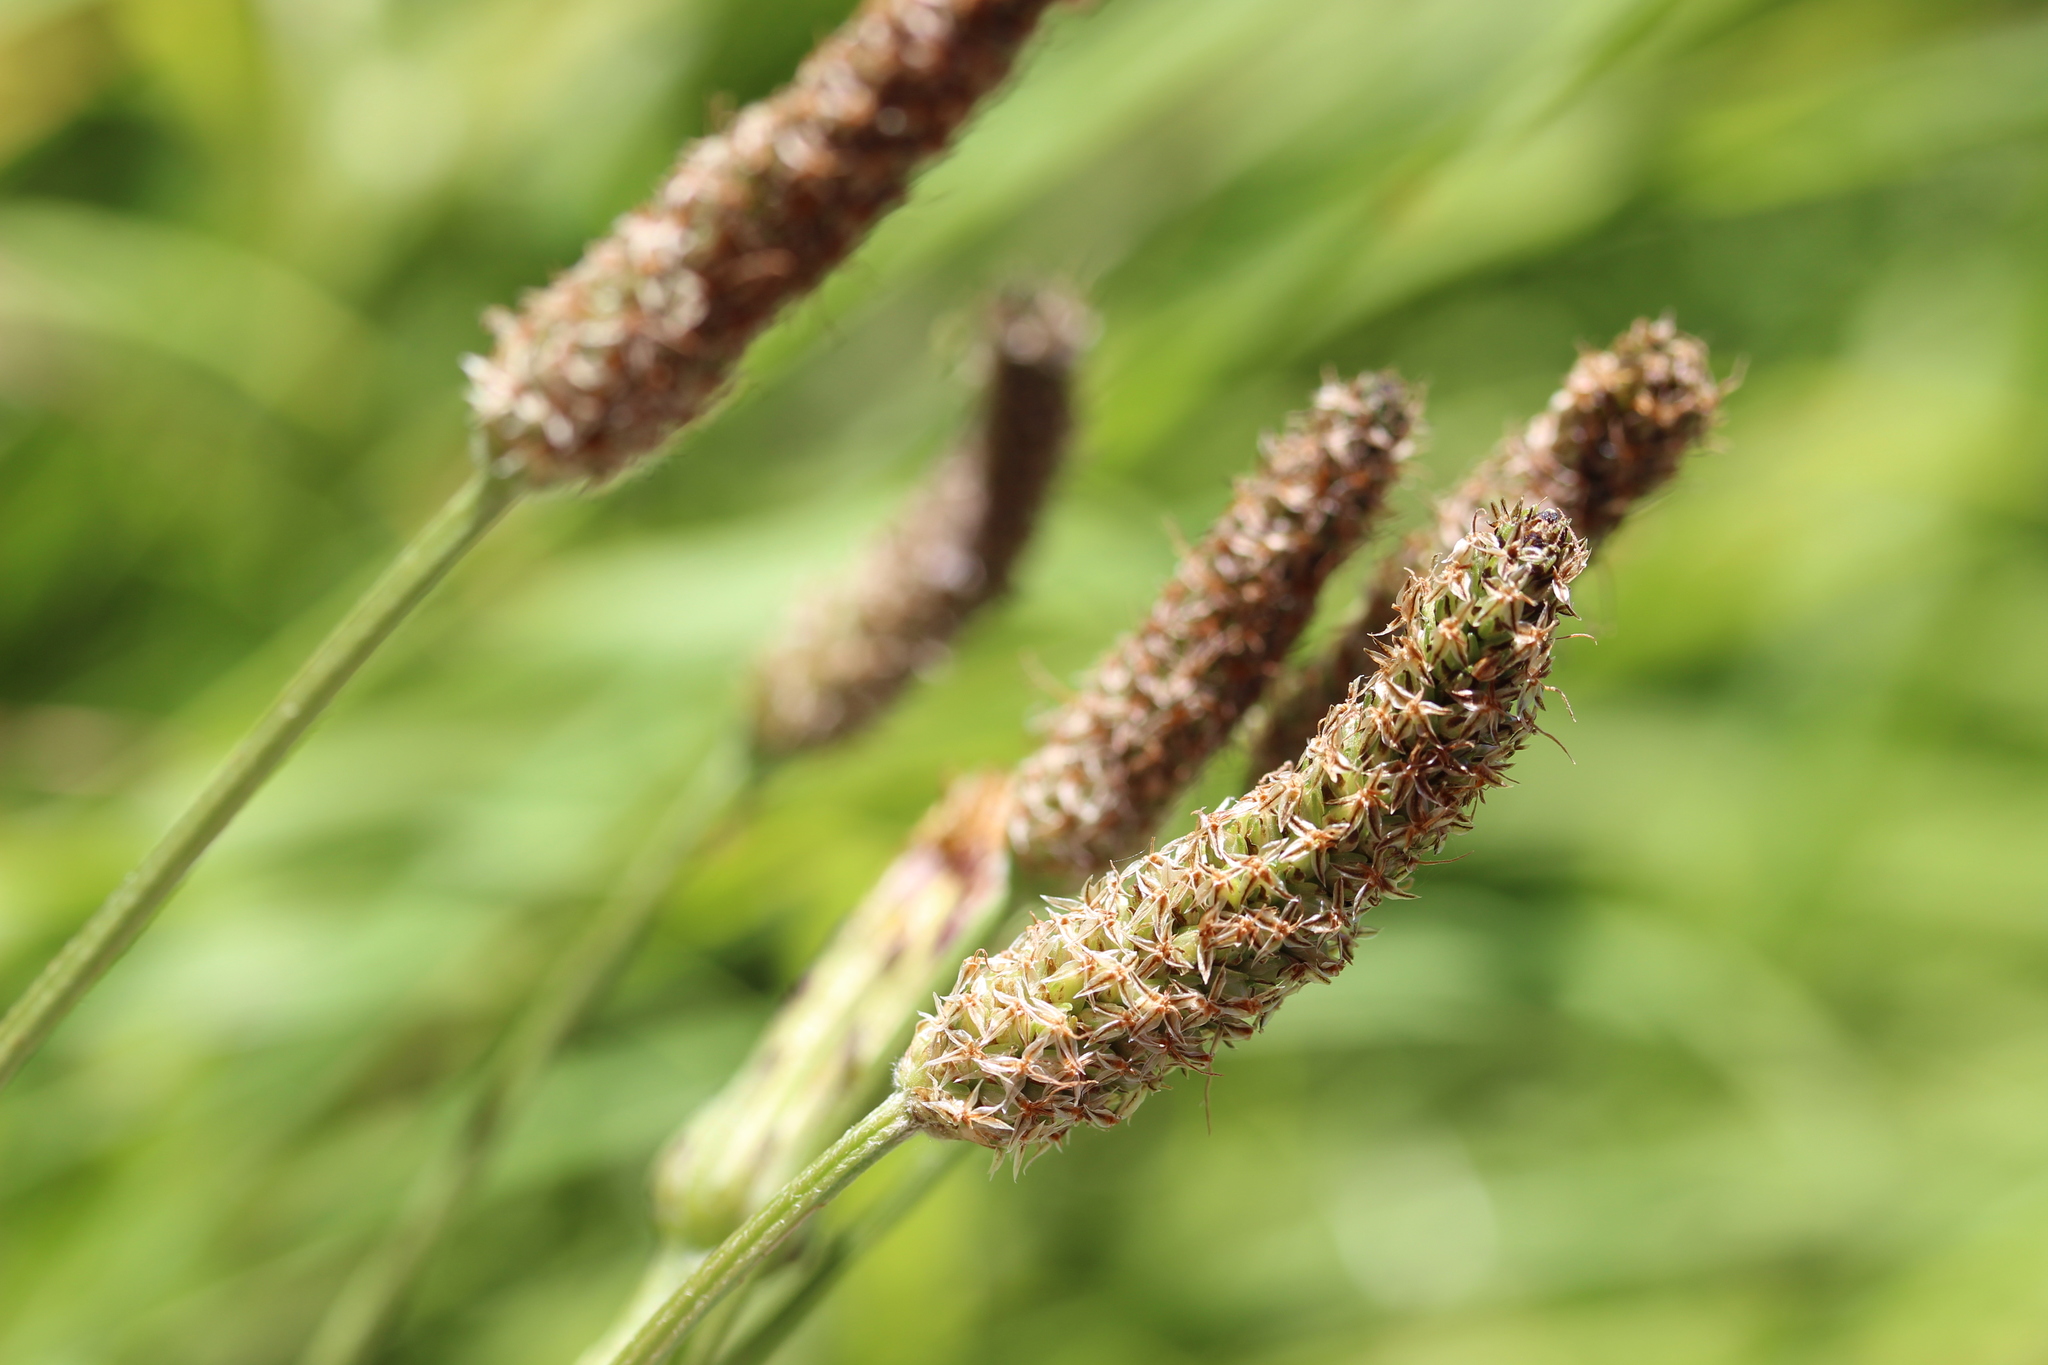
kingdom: Plantae
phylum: Tracheophyta
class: Magnoliopsida
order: Lamiales
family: Plantaginaceae
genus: Plantago
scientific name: Plantago lanceolata
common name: Ribwort plantain
